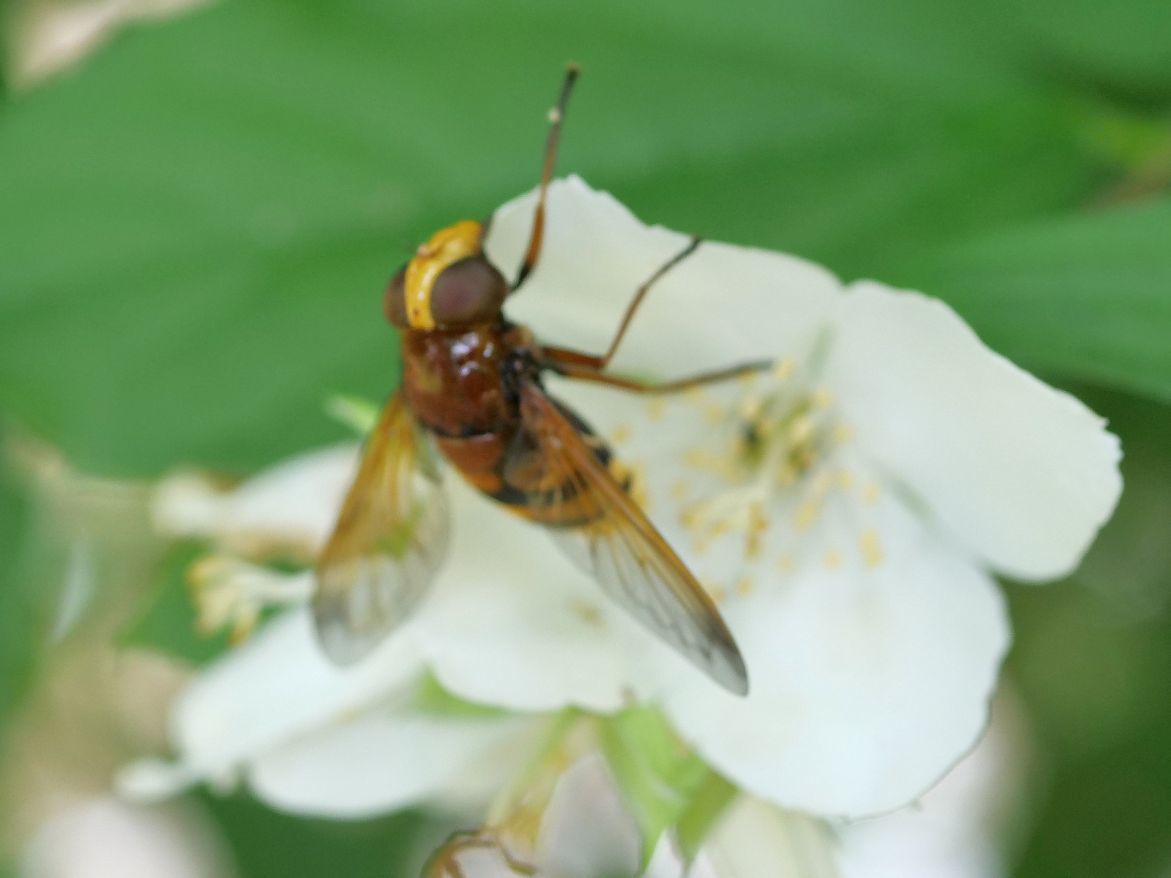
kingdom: Animalia
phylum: Arthropoda
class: Insecta
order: Diptera
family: Syrphidae
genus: Volucella
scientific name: Volucella zonaria
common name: Hornet hoverfly
